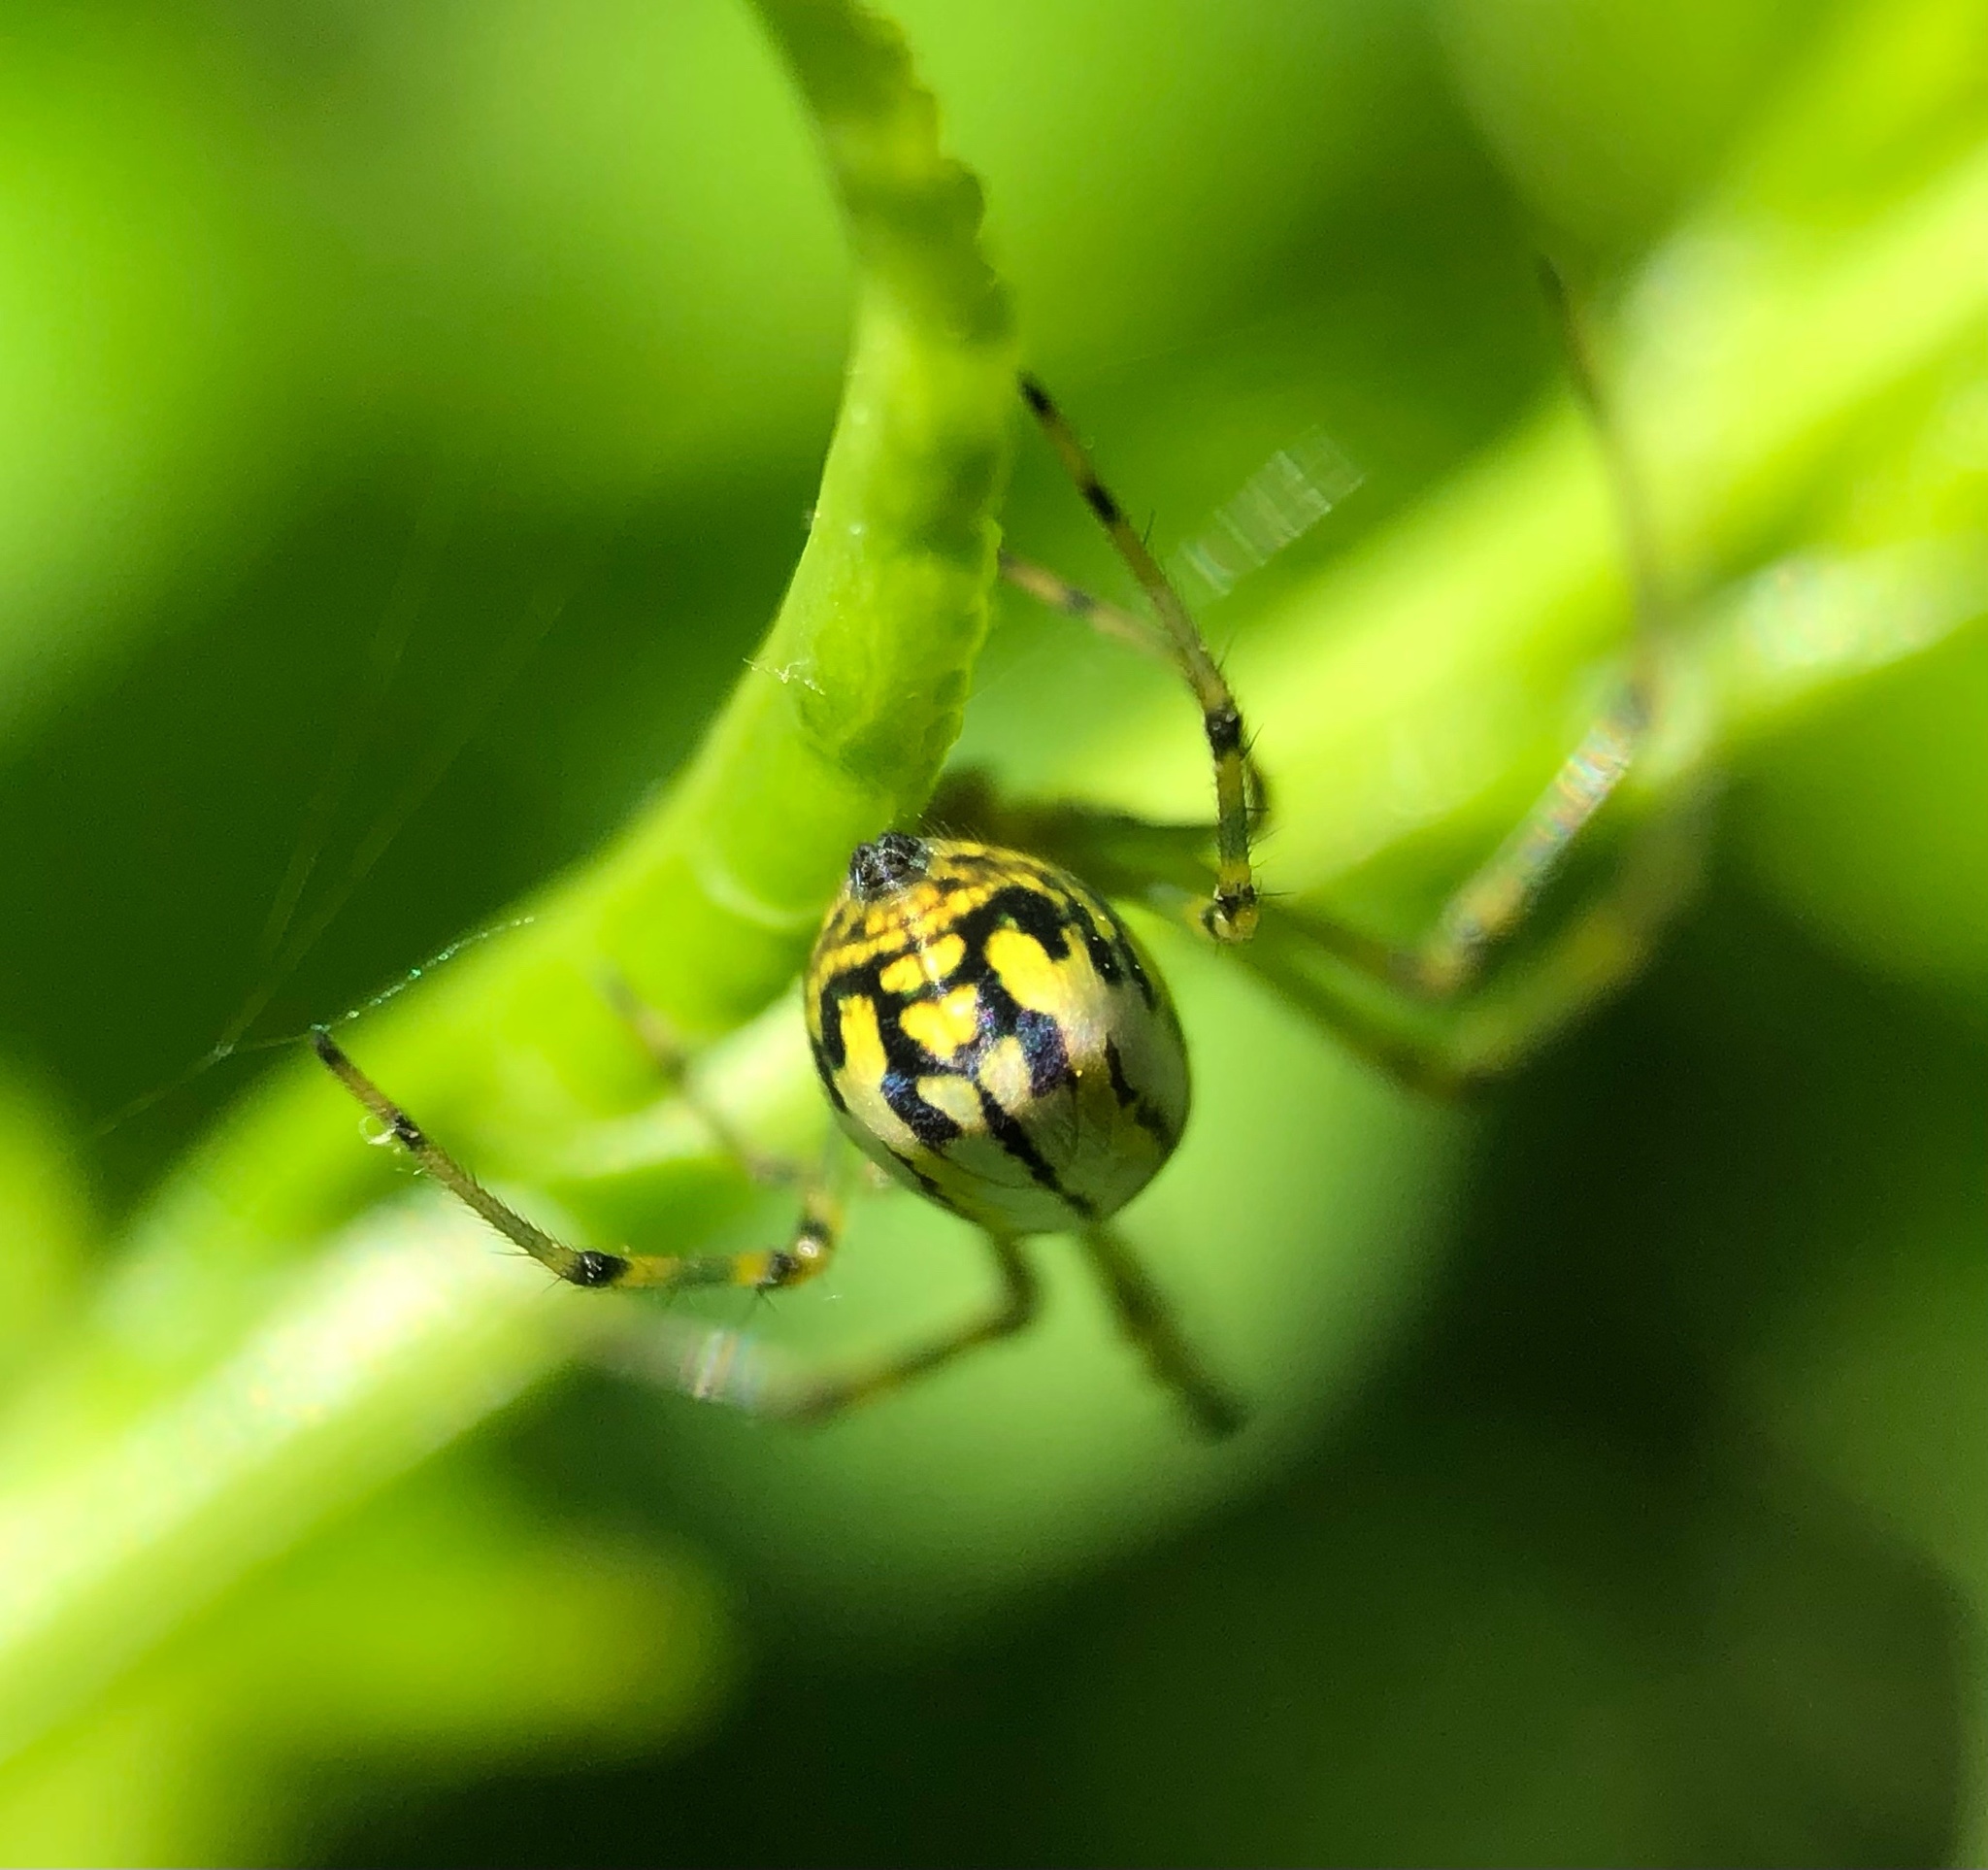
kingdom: Animalia
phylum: Arthropoda
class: Arachnida
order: Araneae
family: Tetragnathidae
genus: Leucauge
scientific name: Leucauge venusta
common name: Longjawed orb weavers
